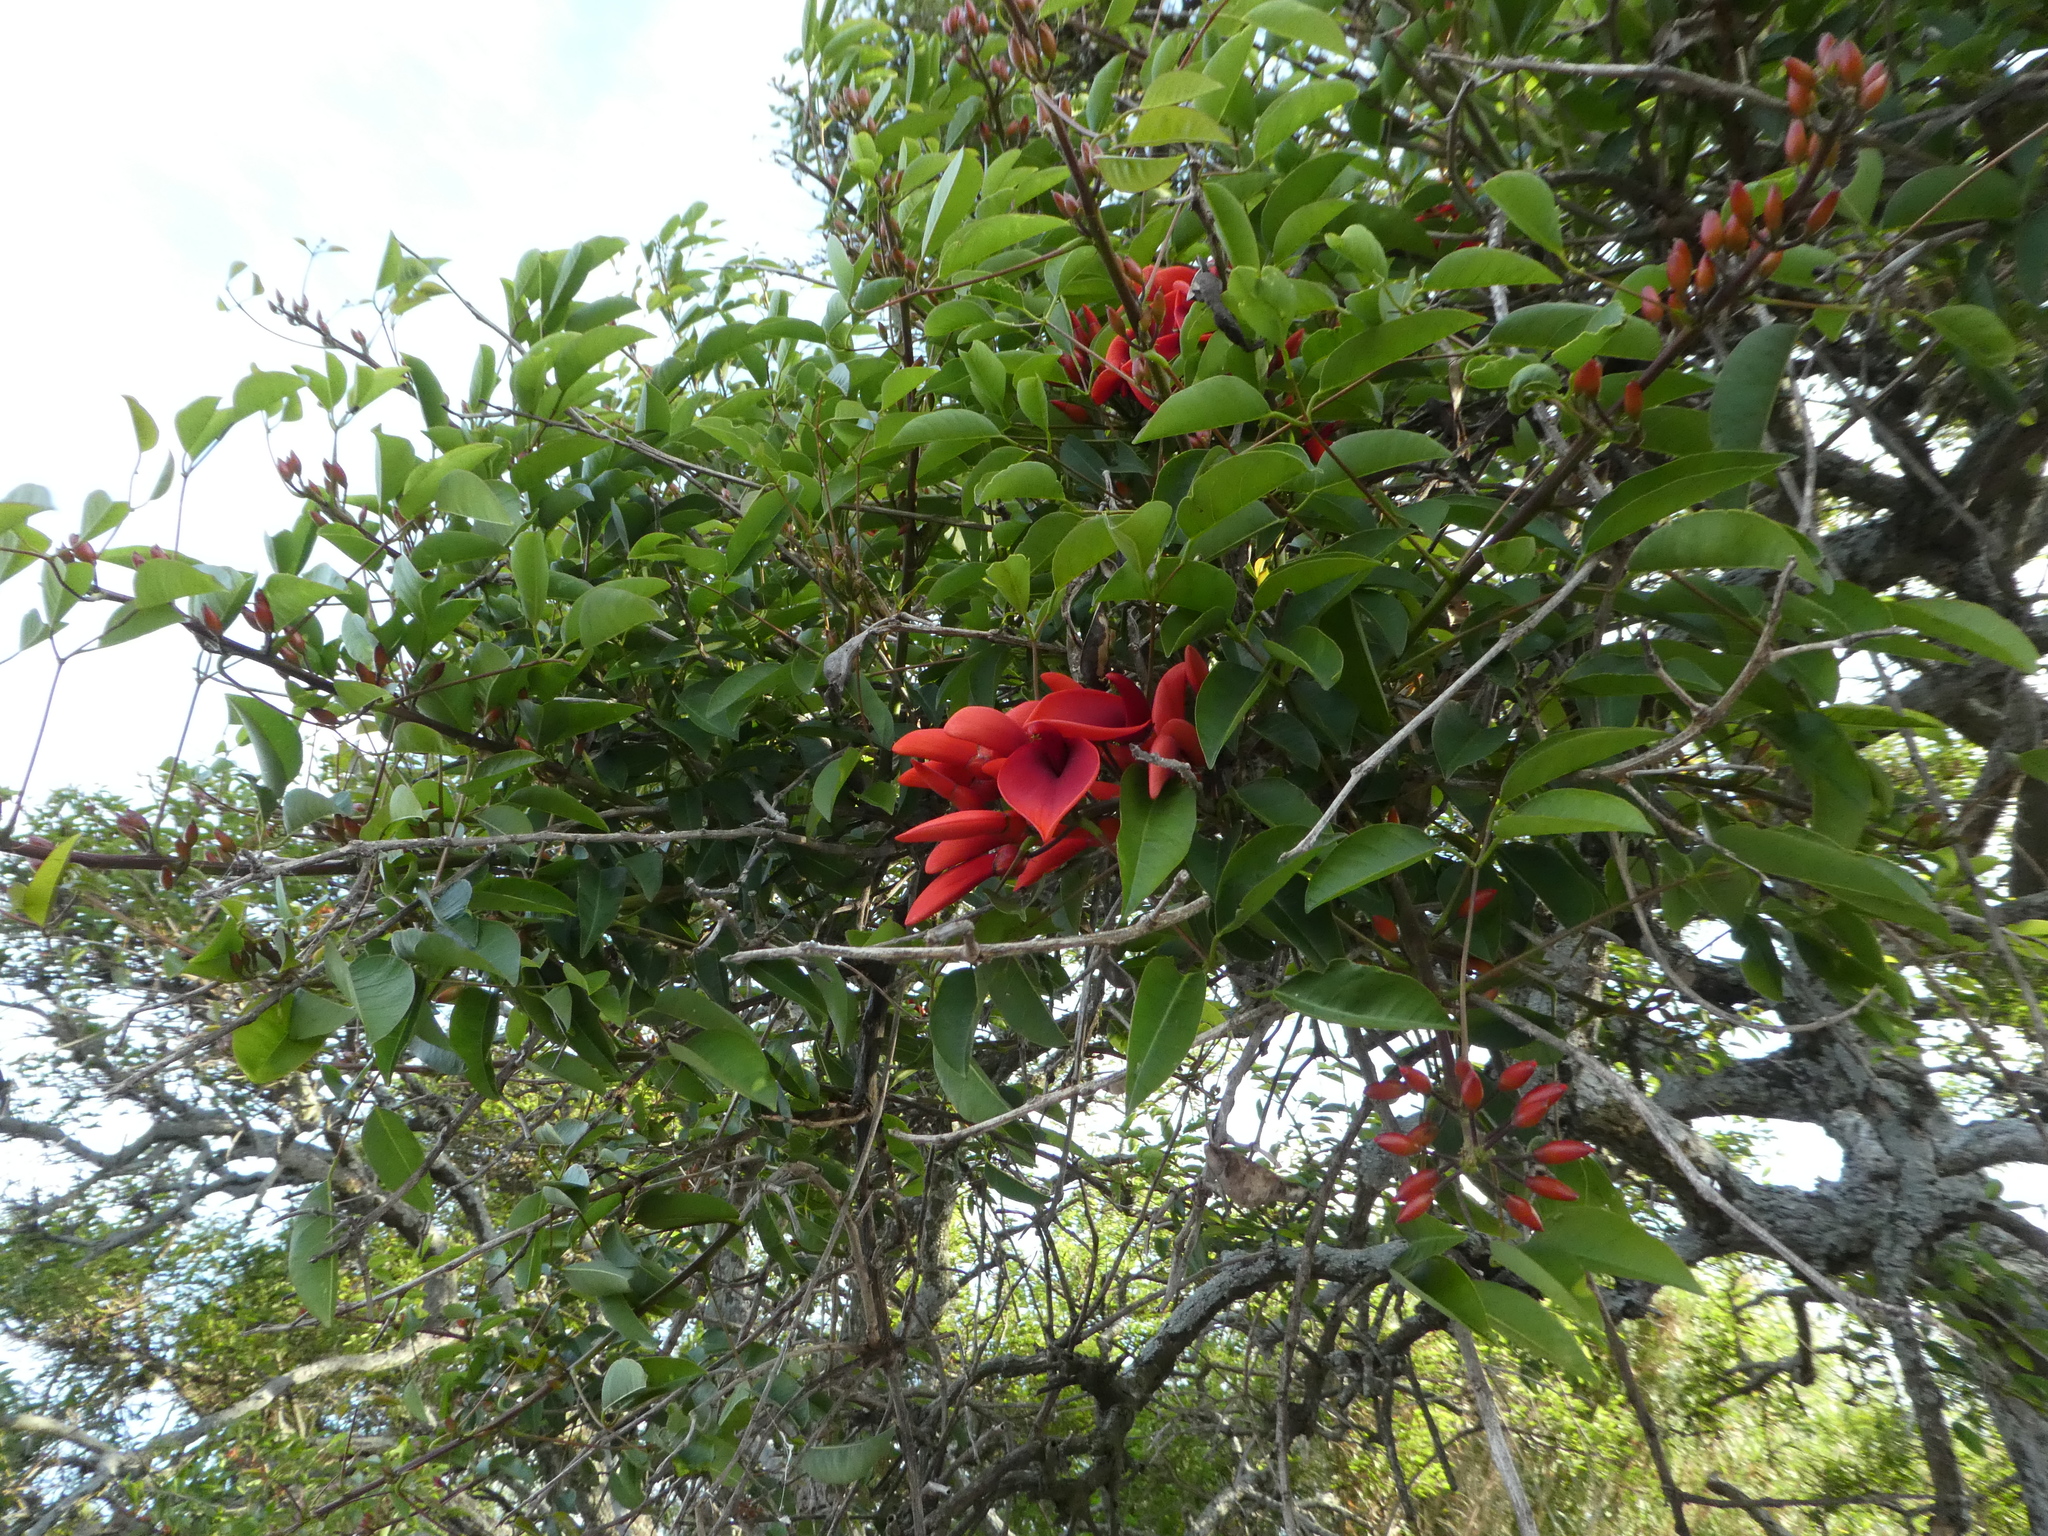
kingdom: Plantae
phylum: Tracheophyta
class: Magnoliopsida
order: Fabales
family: Fabaceae
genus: Erythrina
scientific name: Erythrina crista-galli
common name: Cockspur coral tree
